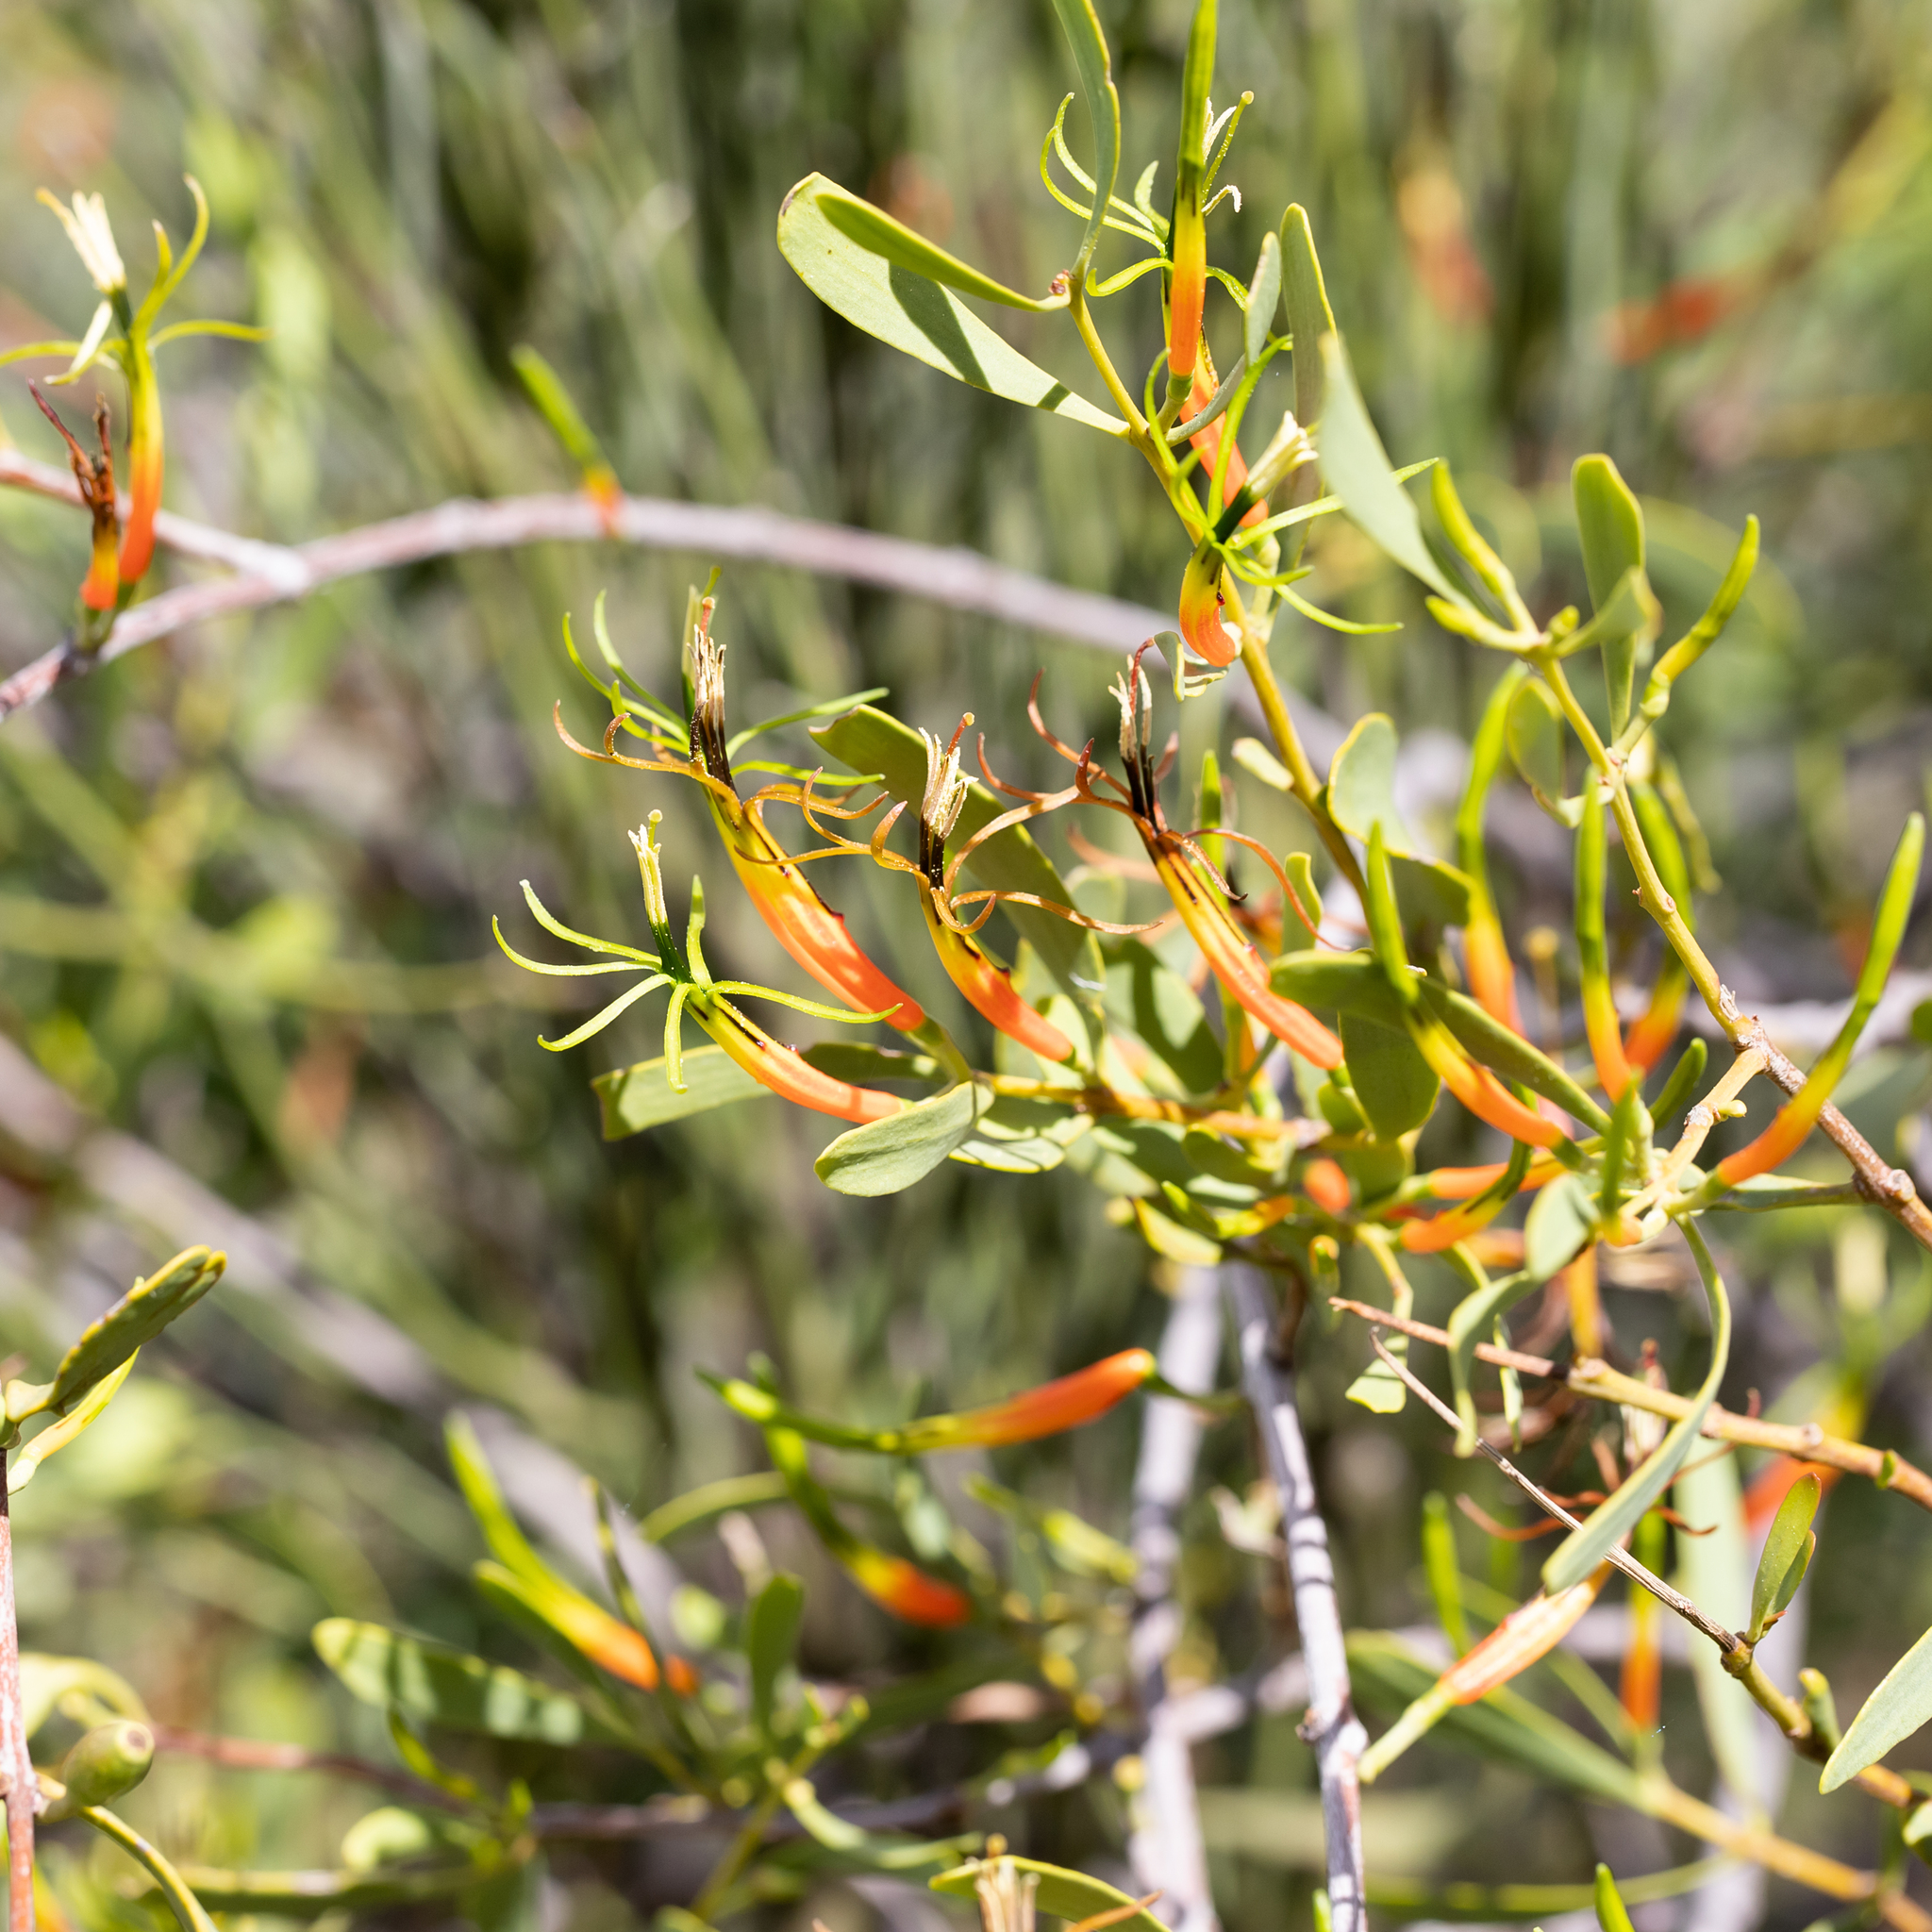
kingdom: Plantae
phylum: Tracheophyta
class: Magnoliopsida
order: Santalales
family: Loranthaceae
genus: Lysiana
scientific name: Lysiana subfalcata
